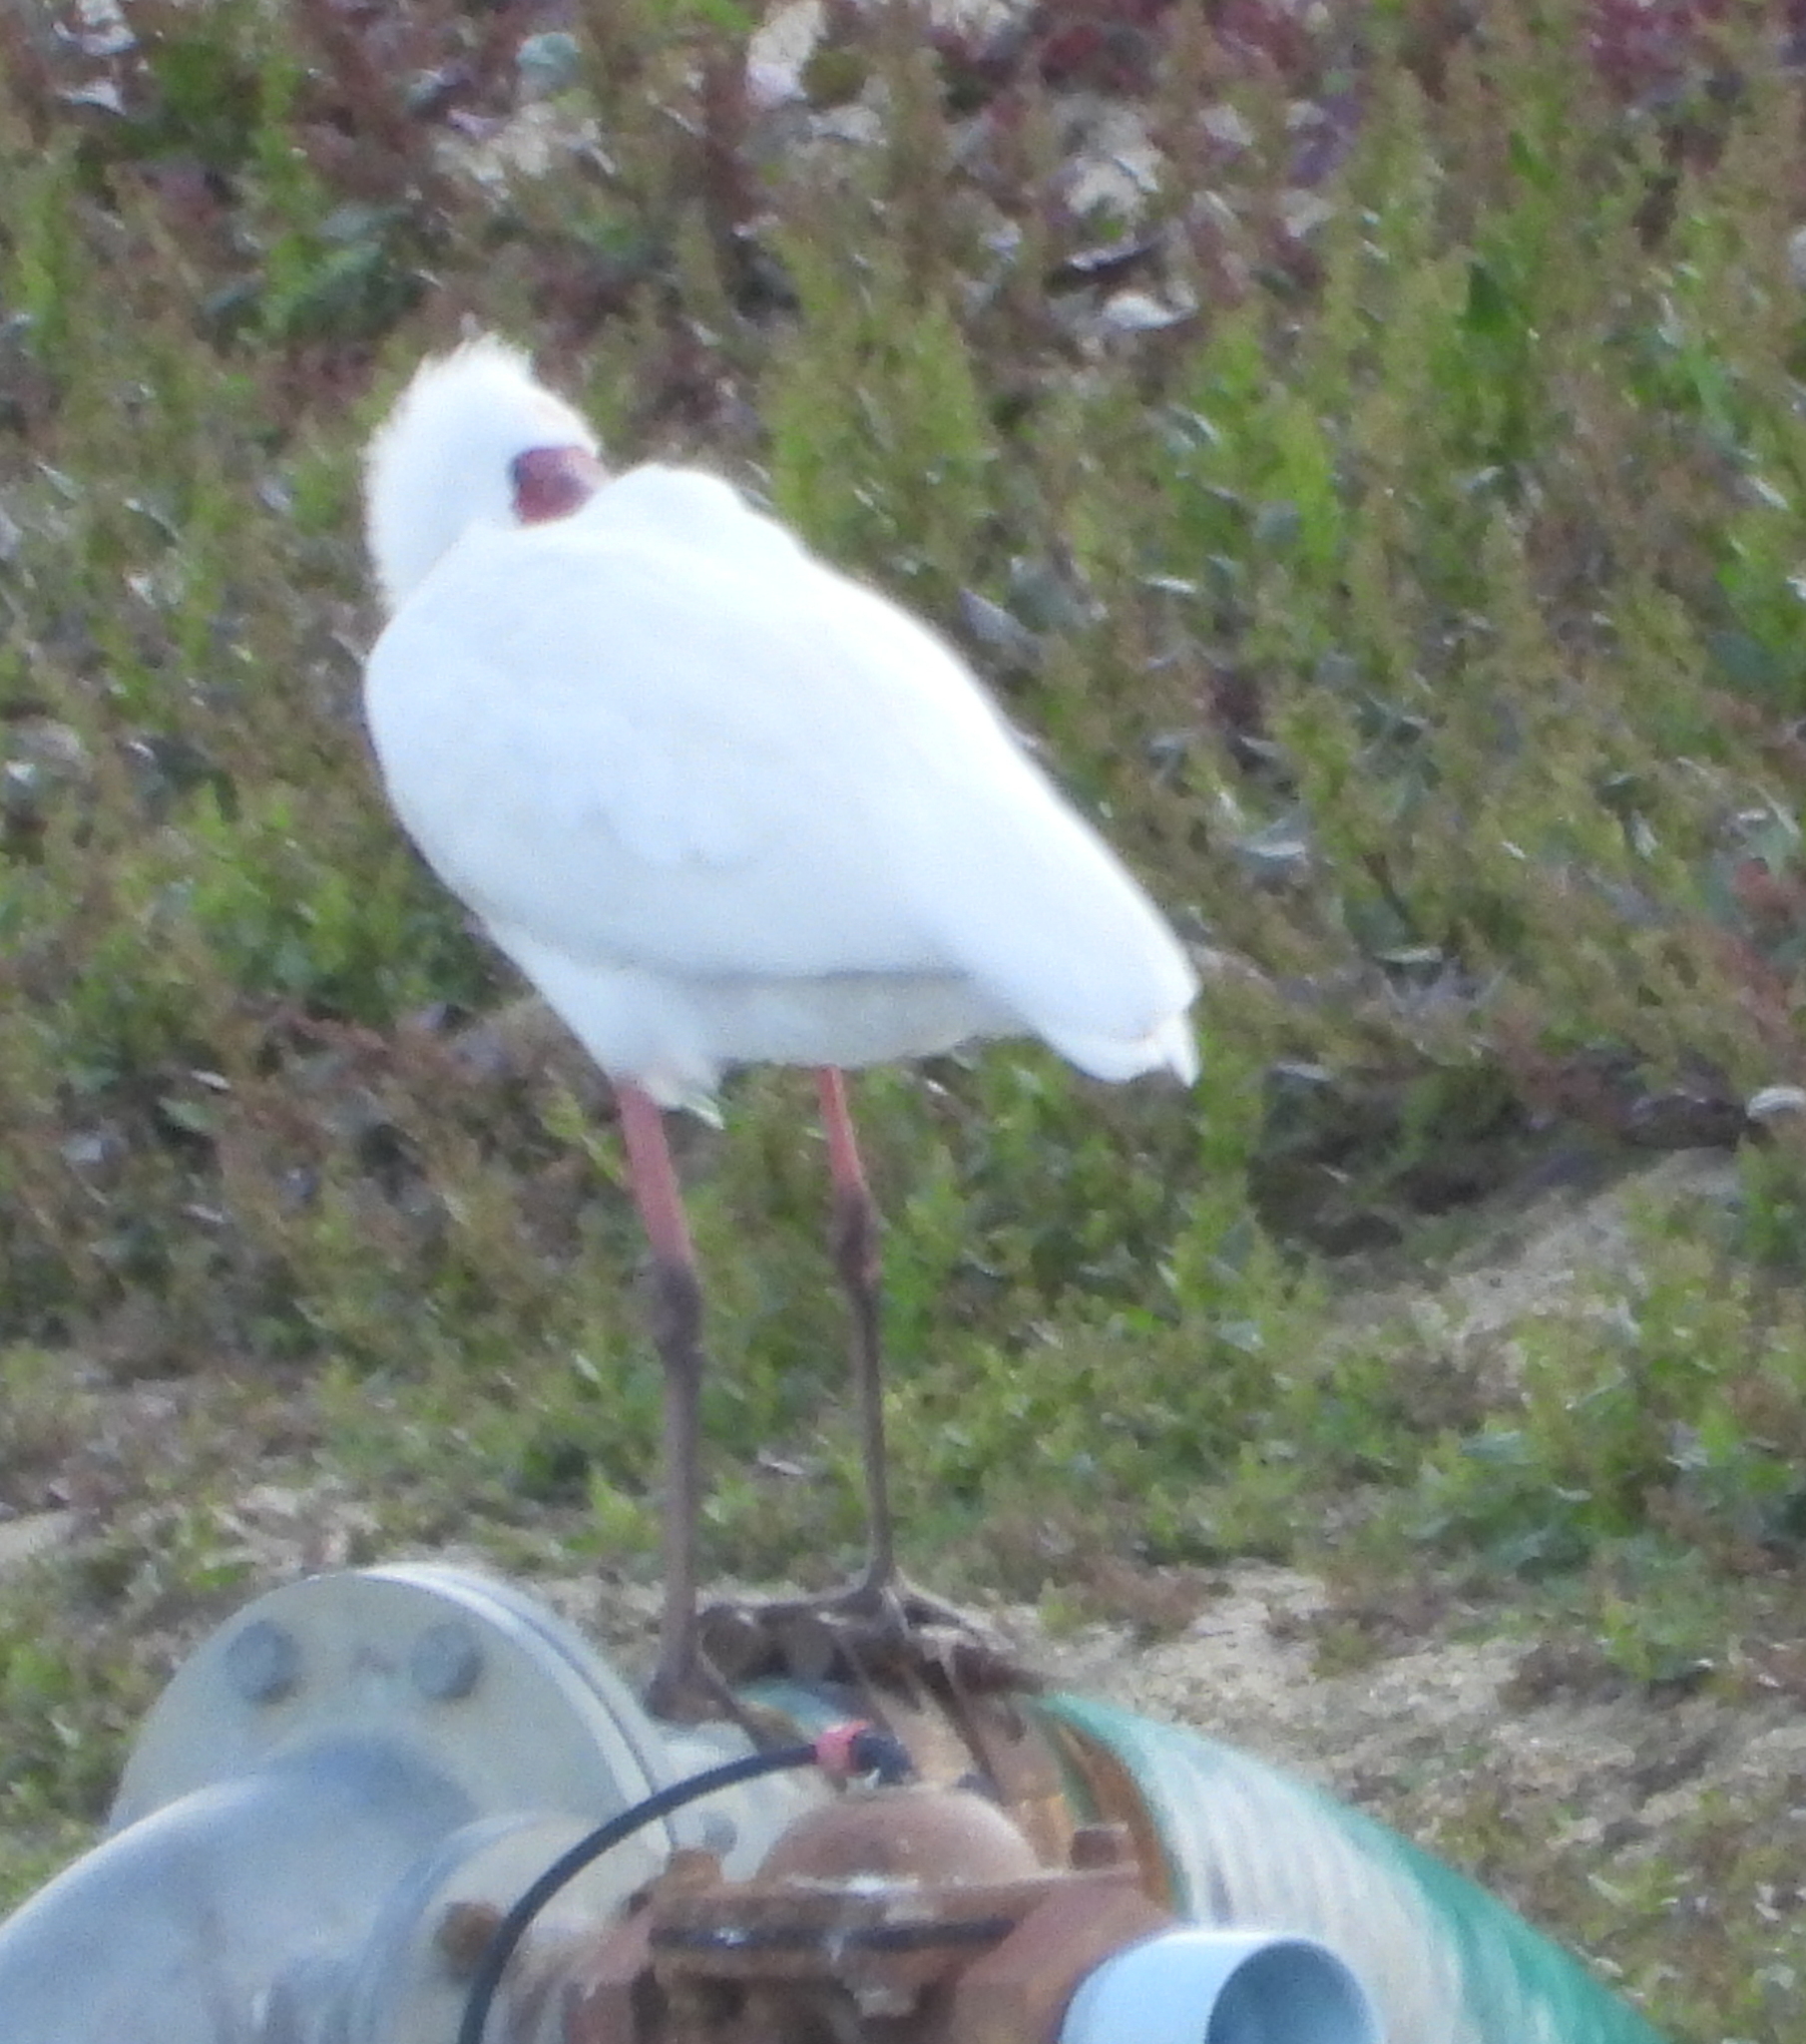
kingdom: Animalia
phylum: Chordata
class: Aves
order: Pelecaniformes
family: Threskiornithidae
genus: Platalea
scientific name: Platalea alba
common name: African spoonbill
